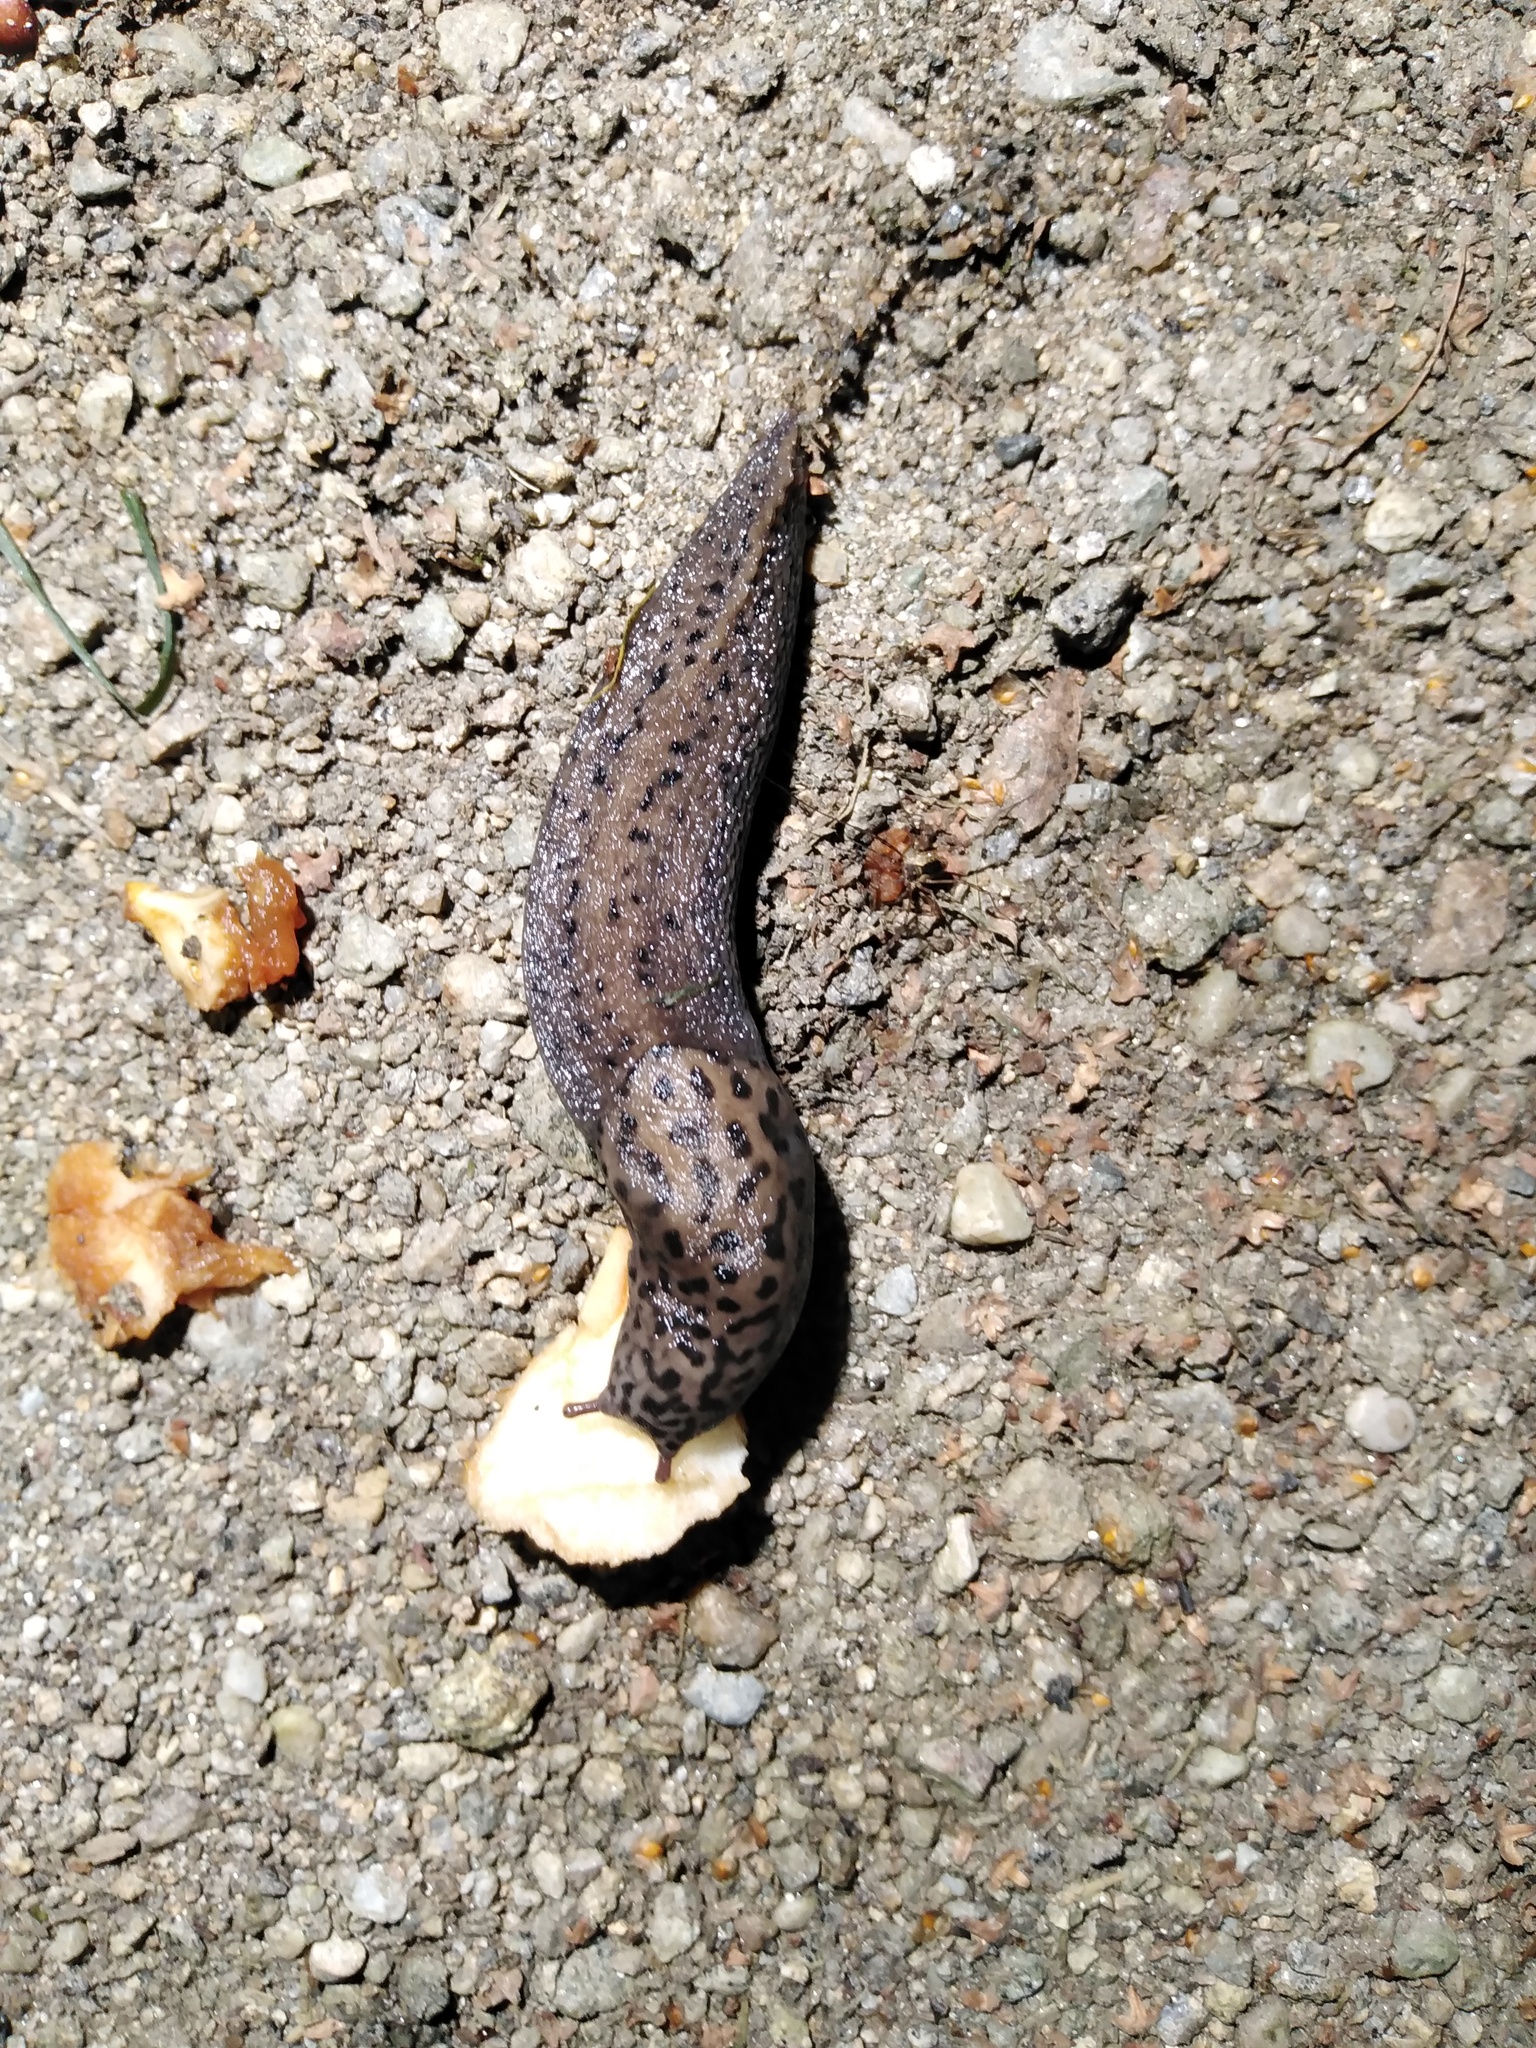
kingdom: Animalia
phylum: Mollusca
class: Gastropoda
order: Stylommatophora
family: Limacidae
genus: Limax
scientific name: Limax maximus
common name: Great grey slug
